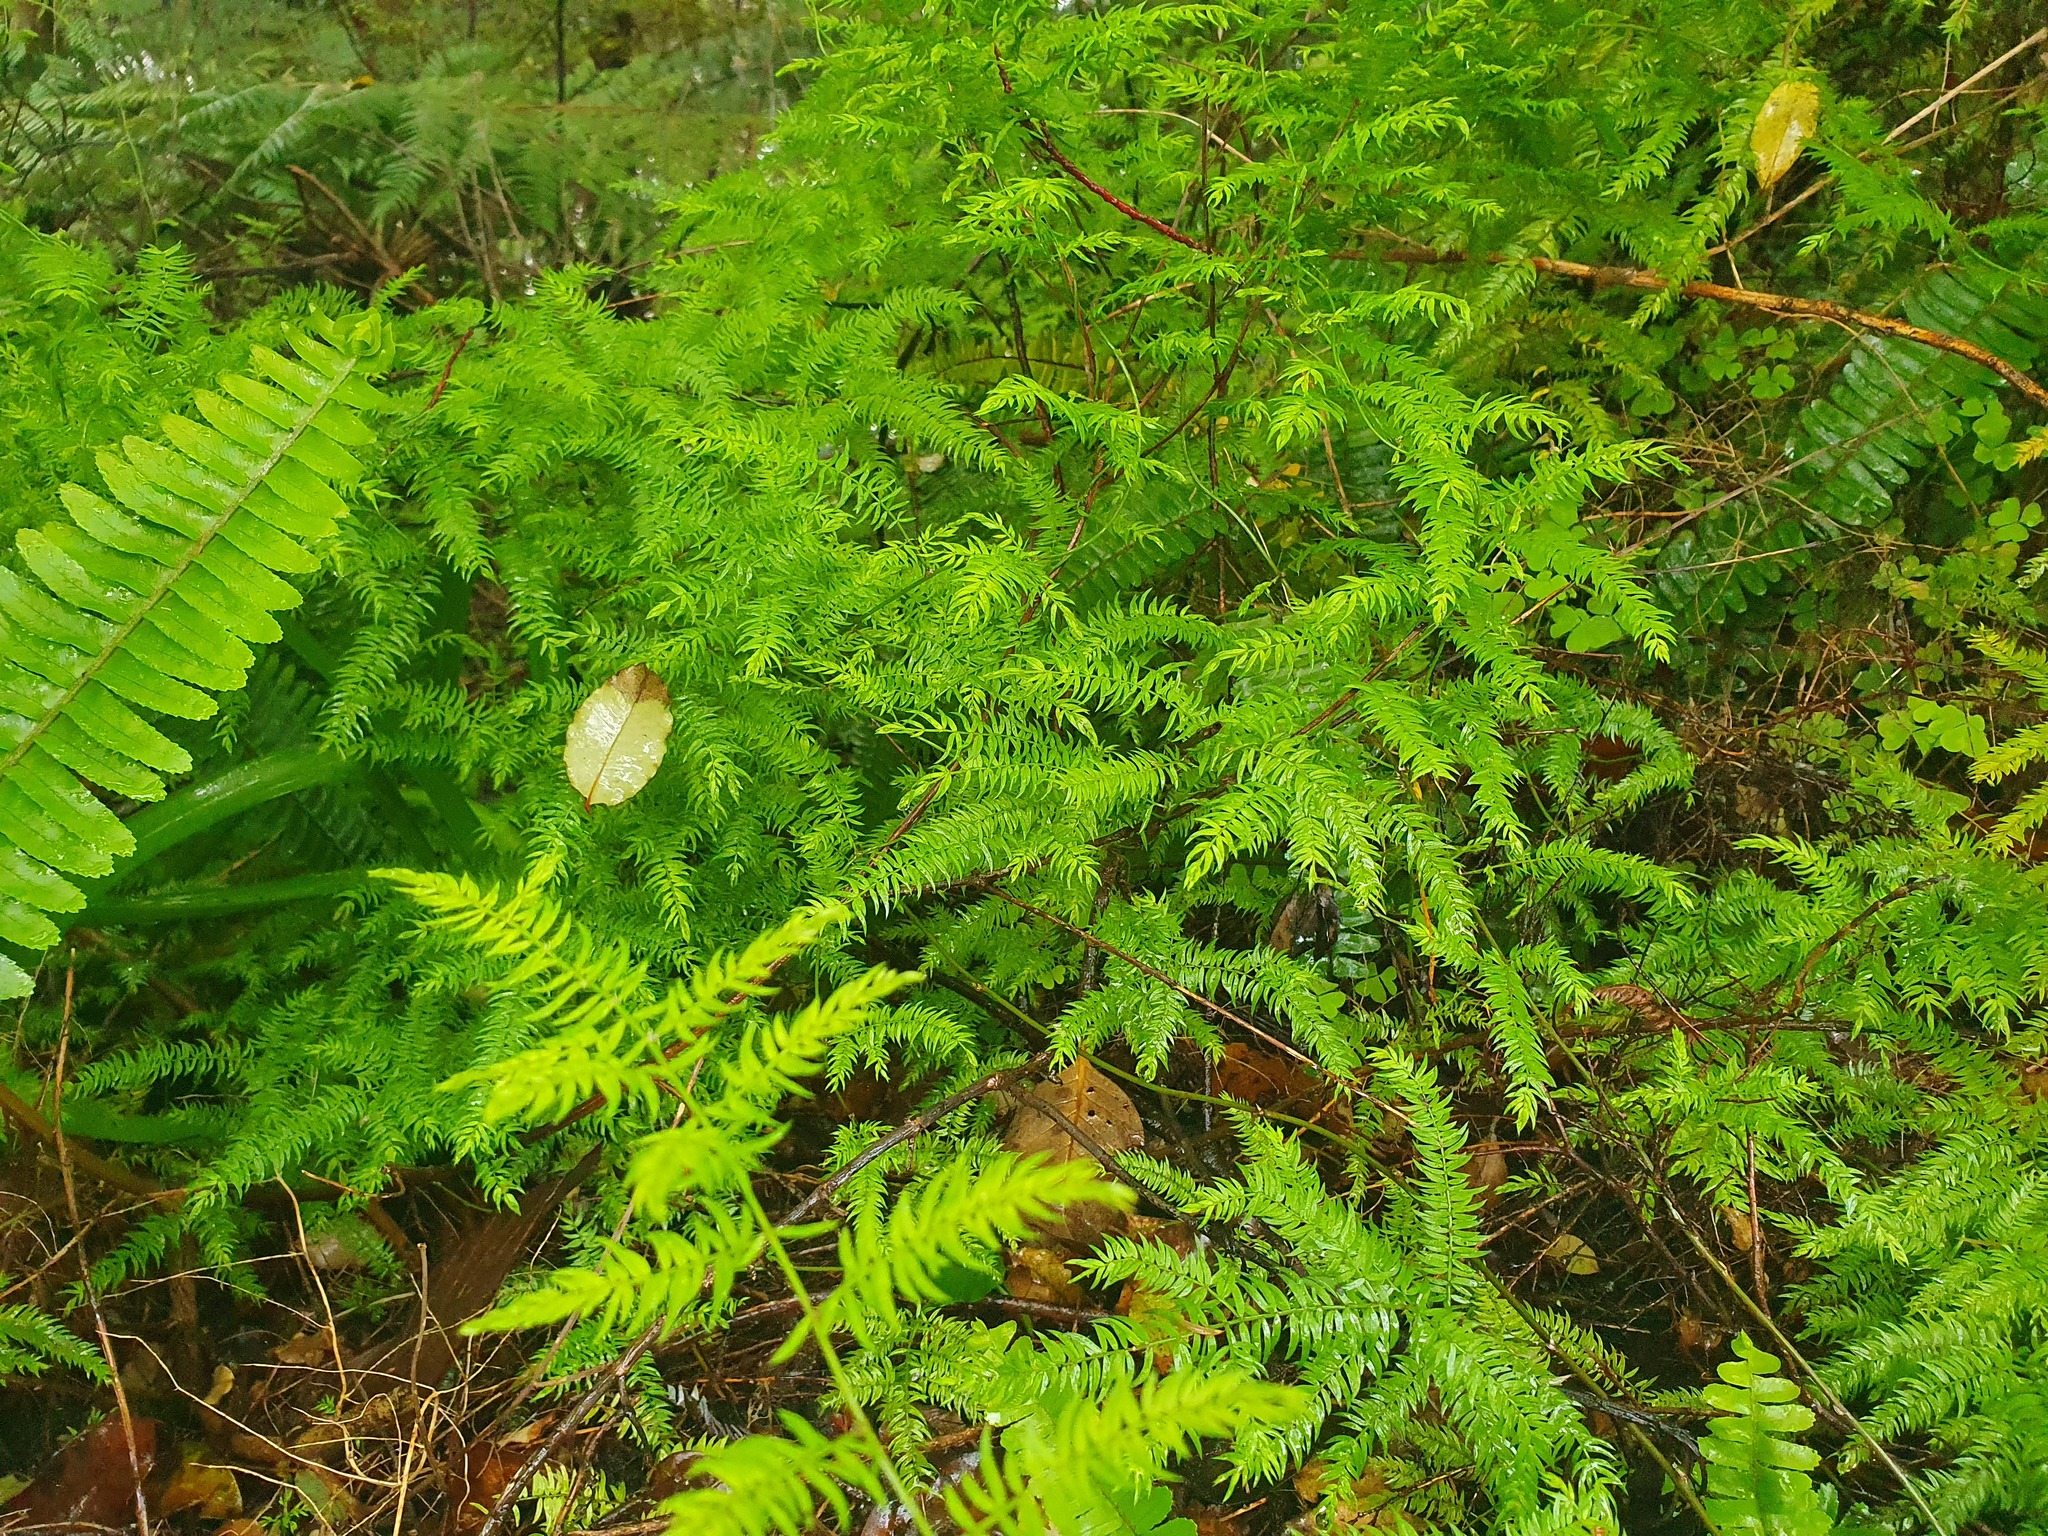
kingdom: Plantae
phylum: Tracheophyta
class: Liliopsida
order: Asparagales
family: Asparagaceae
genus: Asparagus
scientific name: Asparagus scandens
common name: Asparagus-fern
